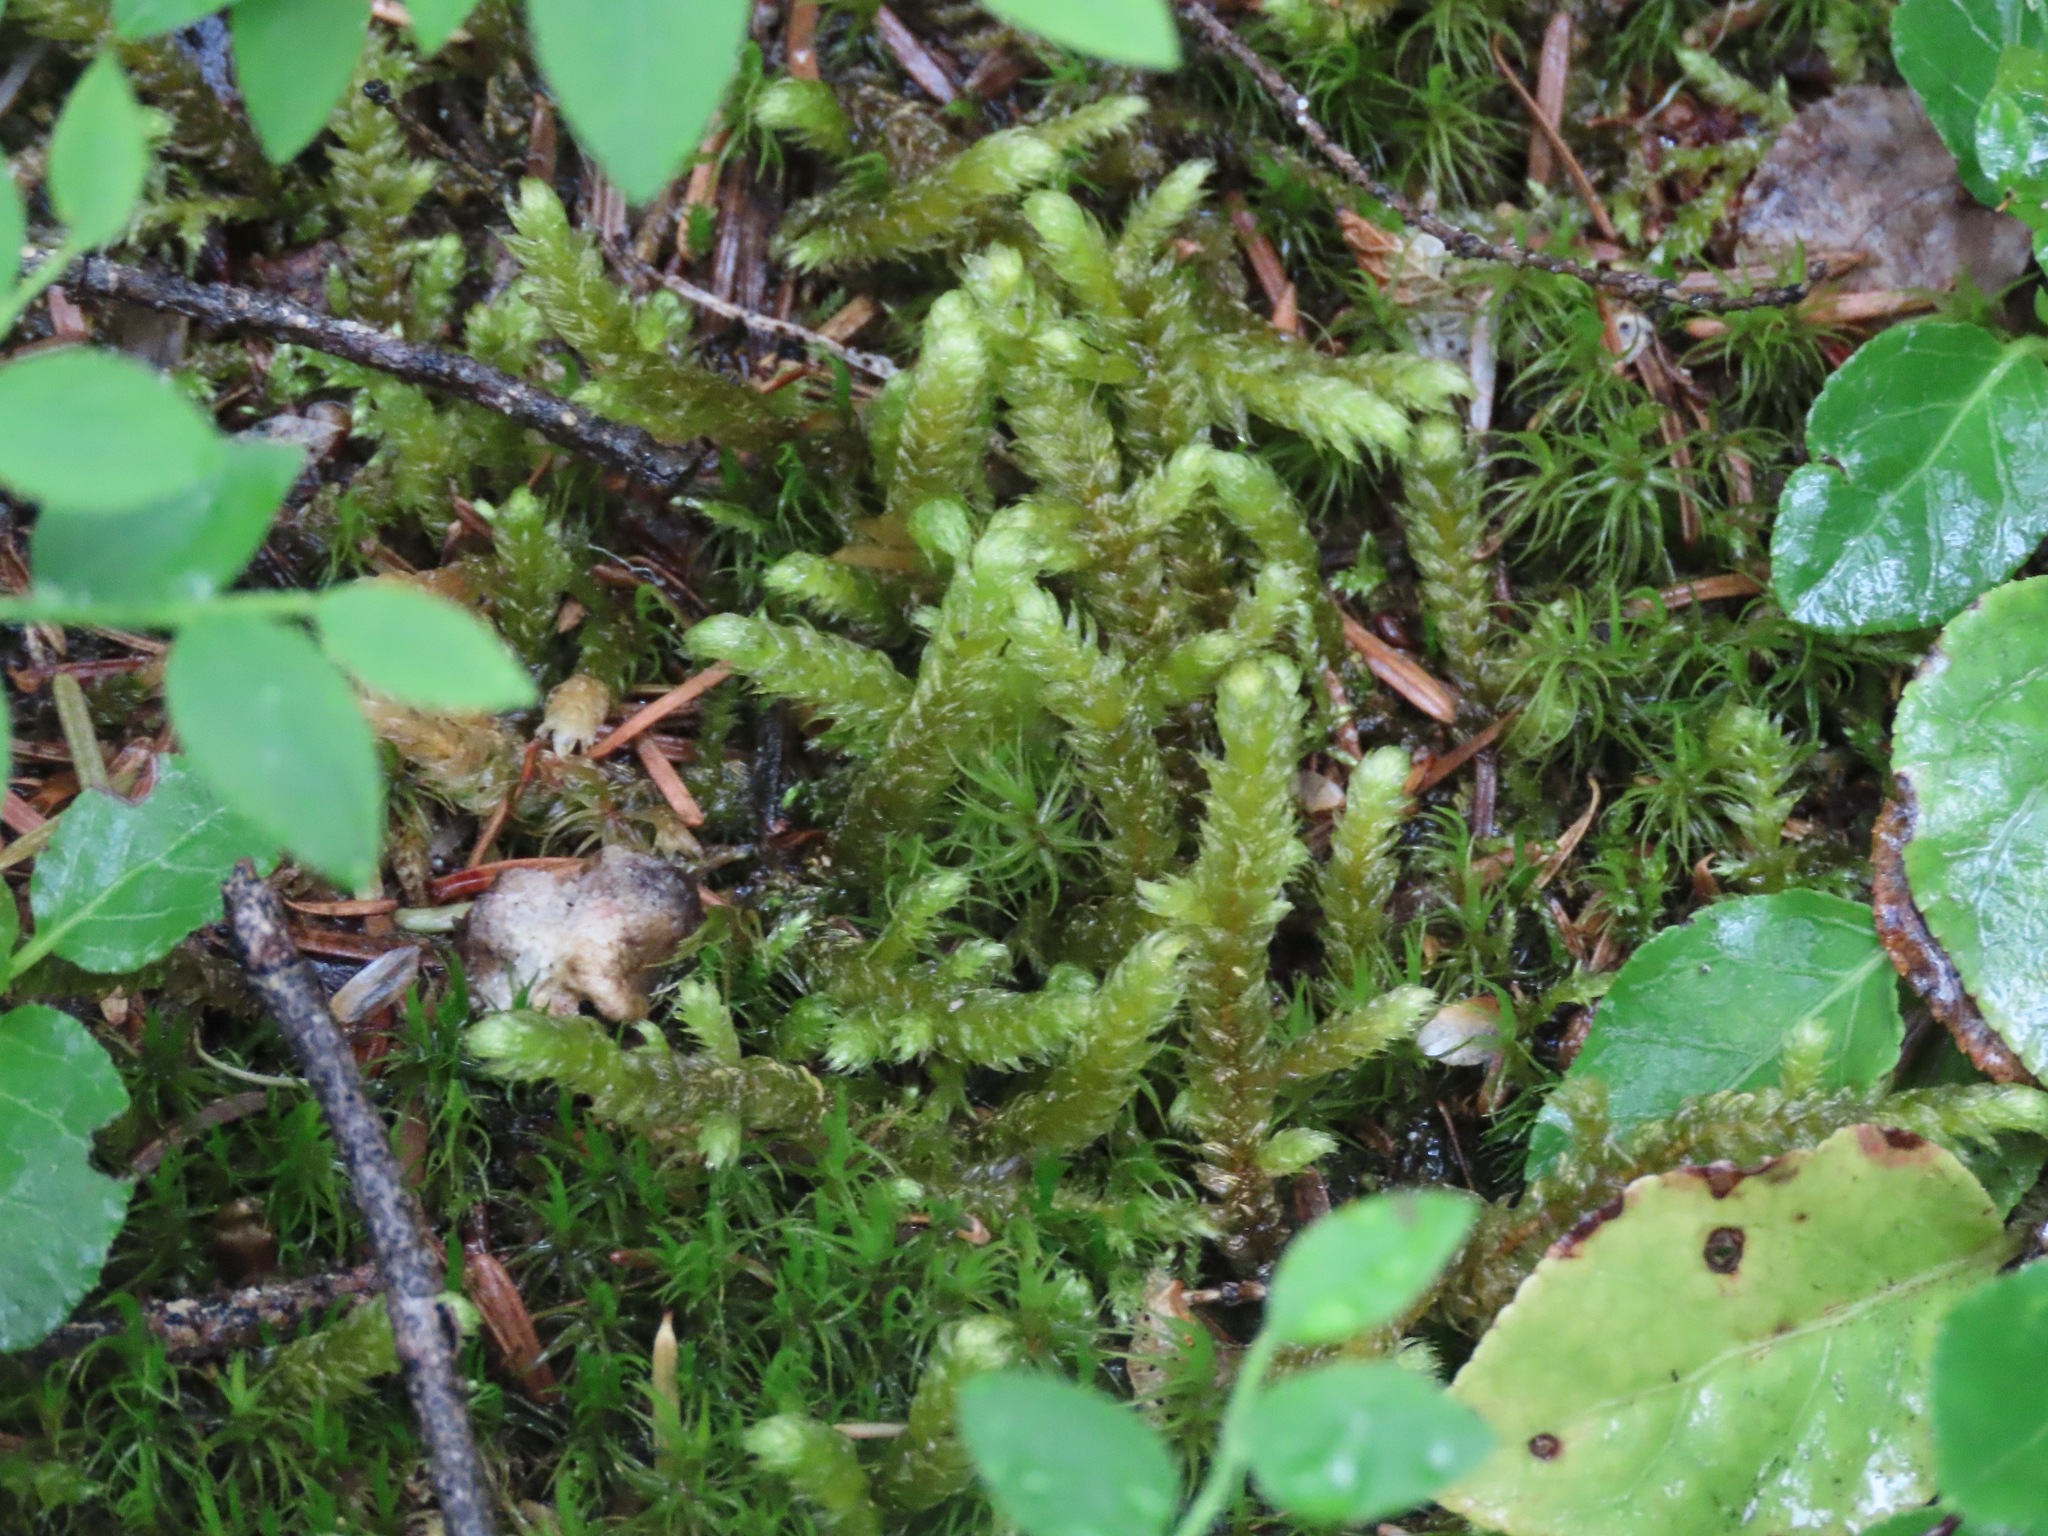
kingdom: Plantae
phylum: Bryophyta
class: Bryopsida
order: Hypnales
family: Hylocomiaceae
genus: Rhytidiopsis
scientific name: Rhytidiopsis robusta
